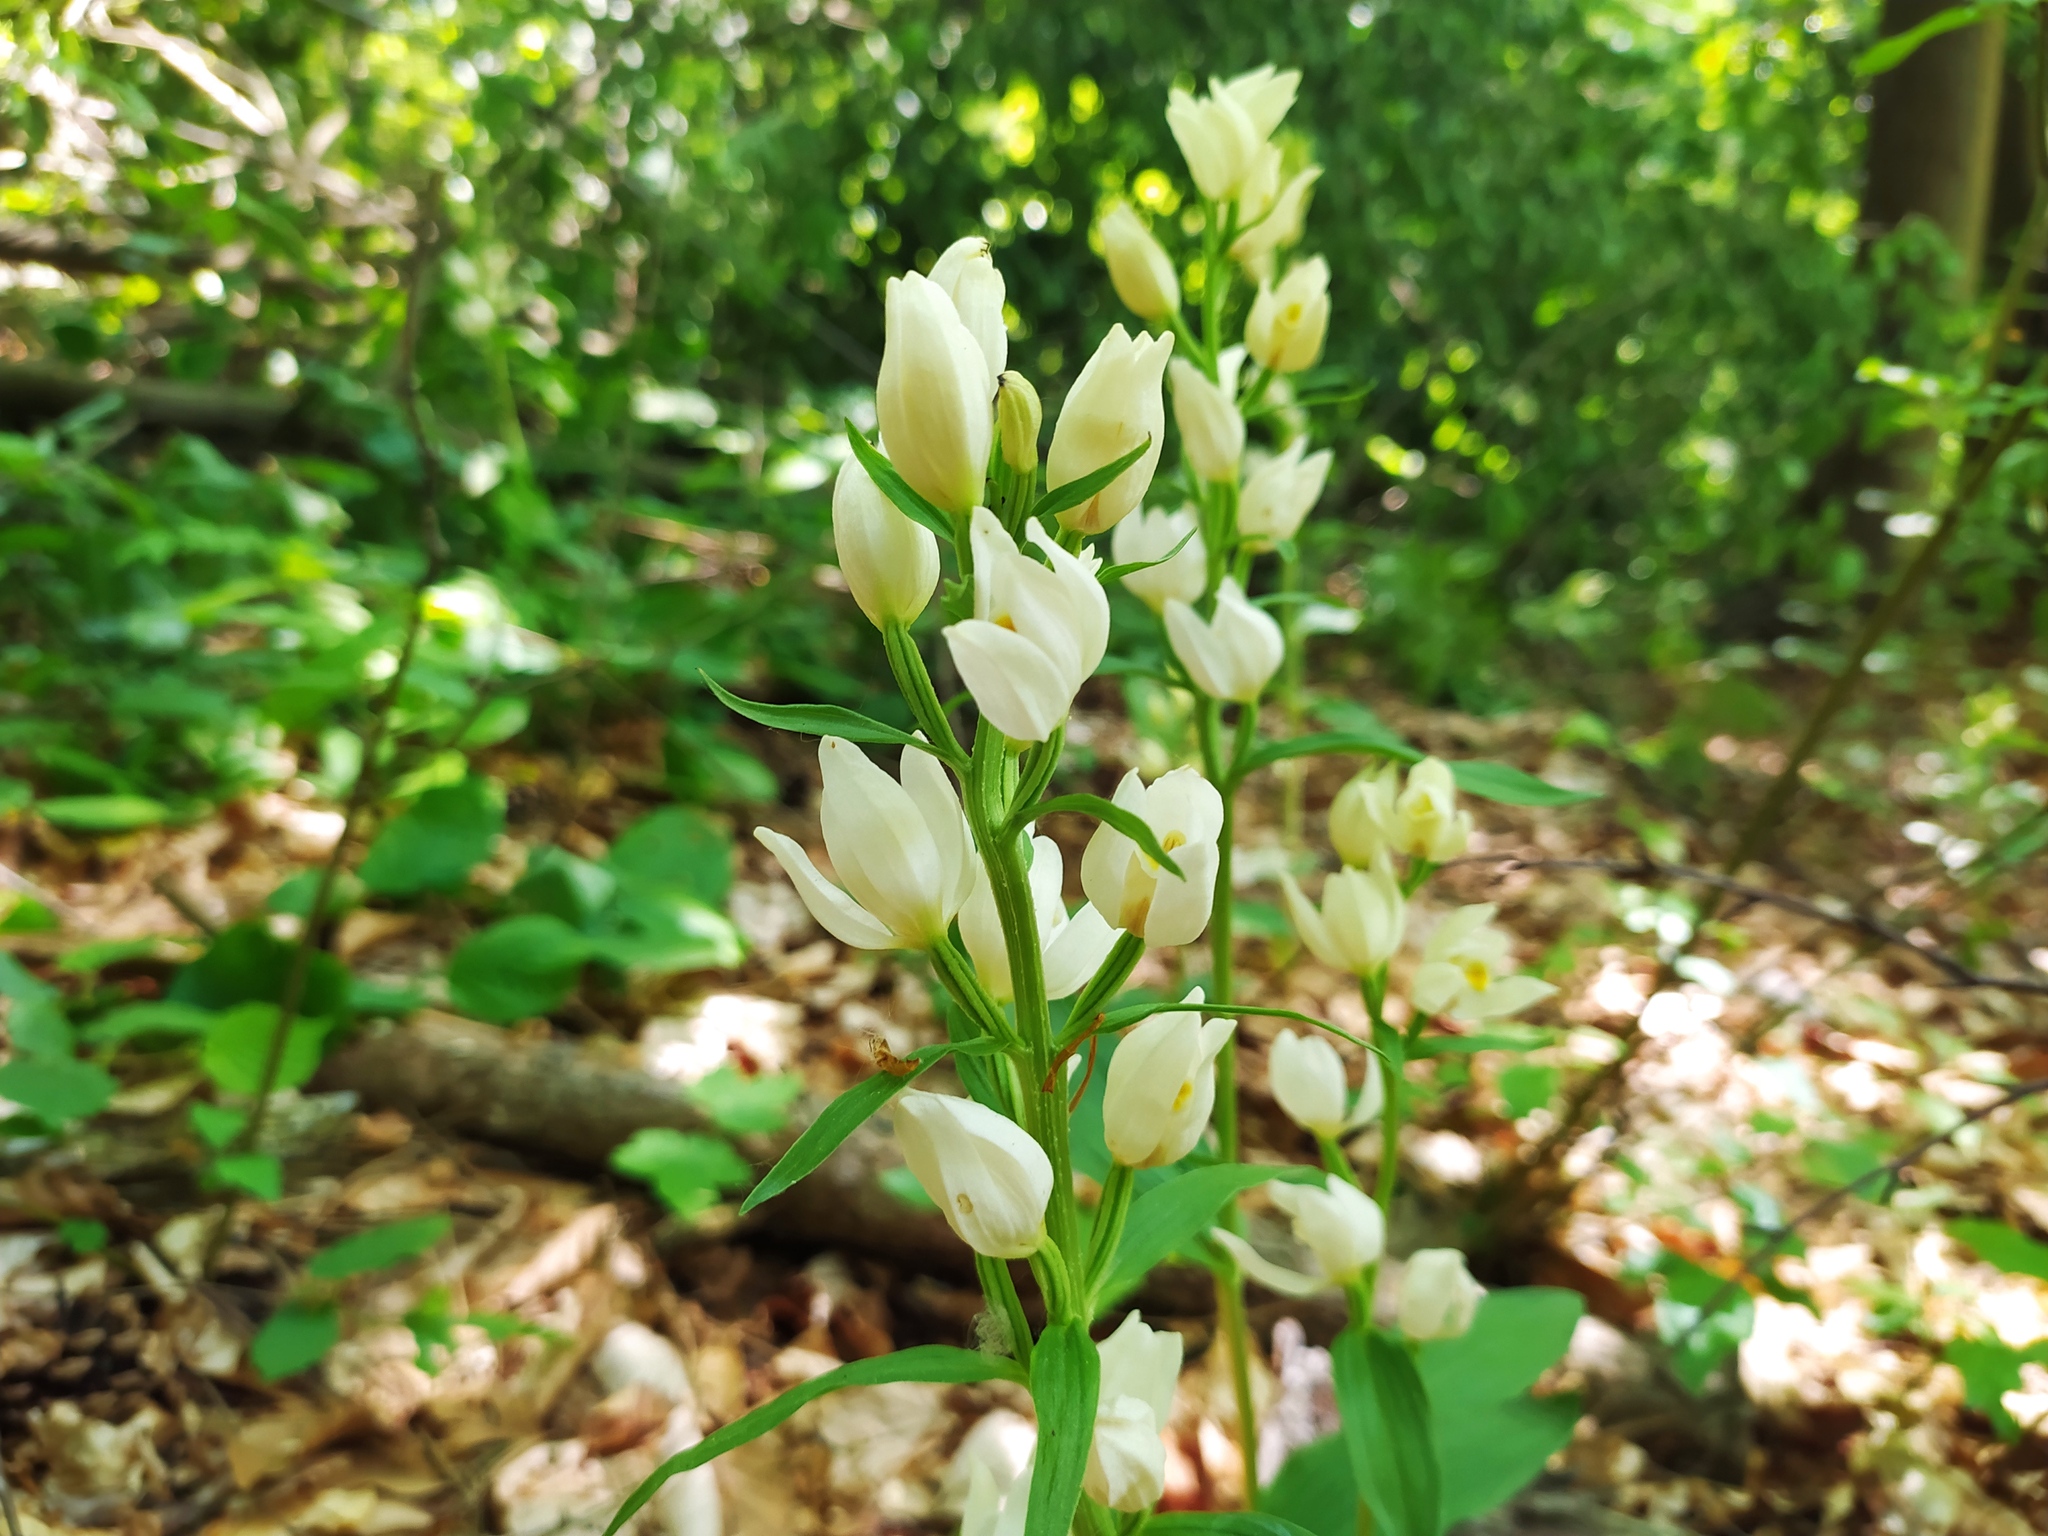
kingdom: Plantae
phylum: Tracheophyta
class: Liliopsida
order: Asparagales
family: Orchidaceae
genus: Cephalanthera
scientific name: Cephalanthera damasonium
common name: White helleborine
